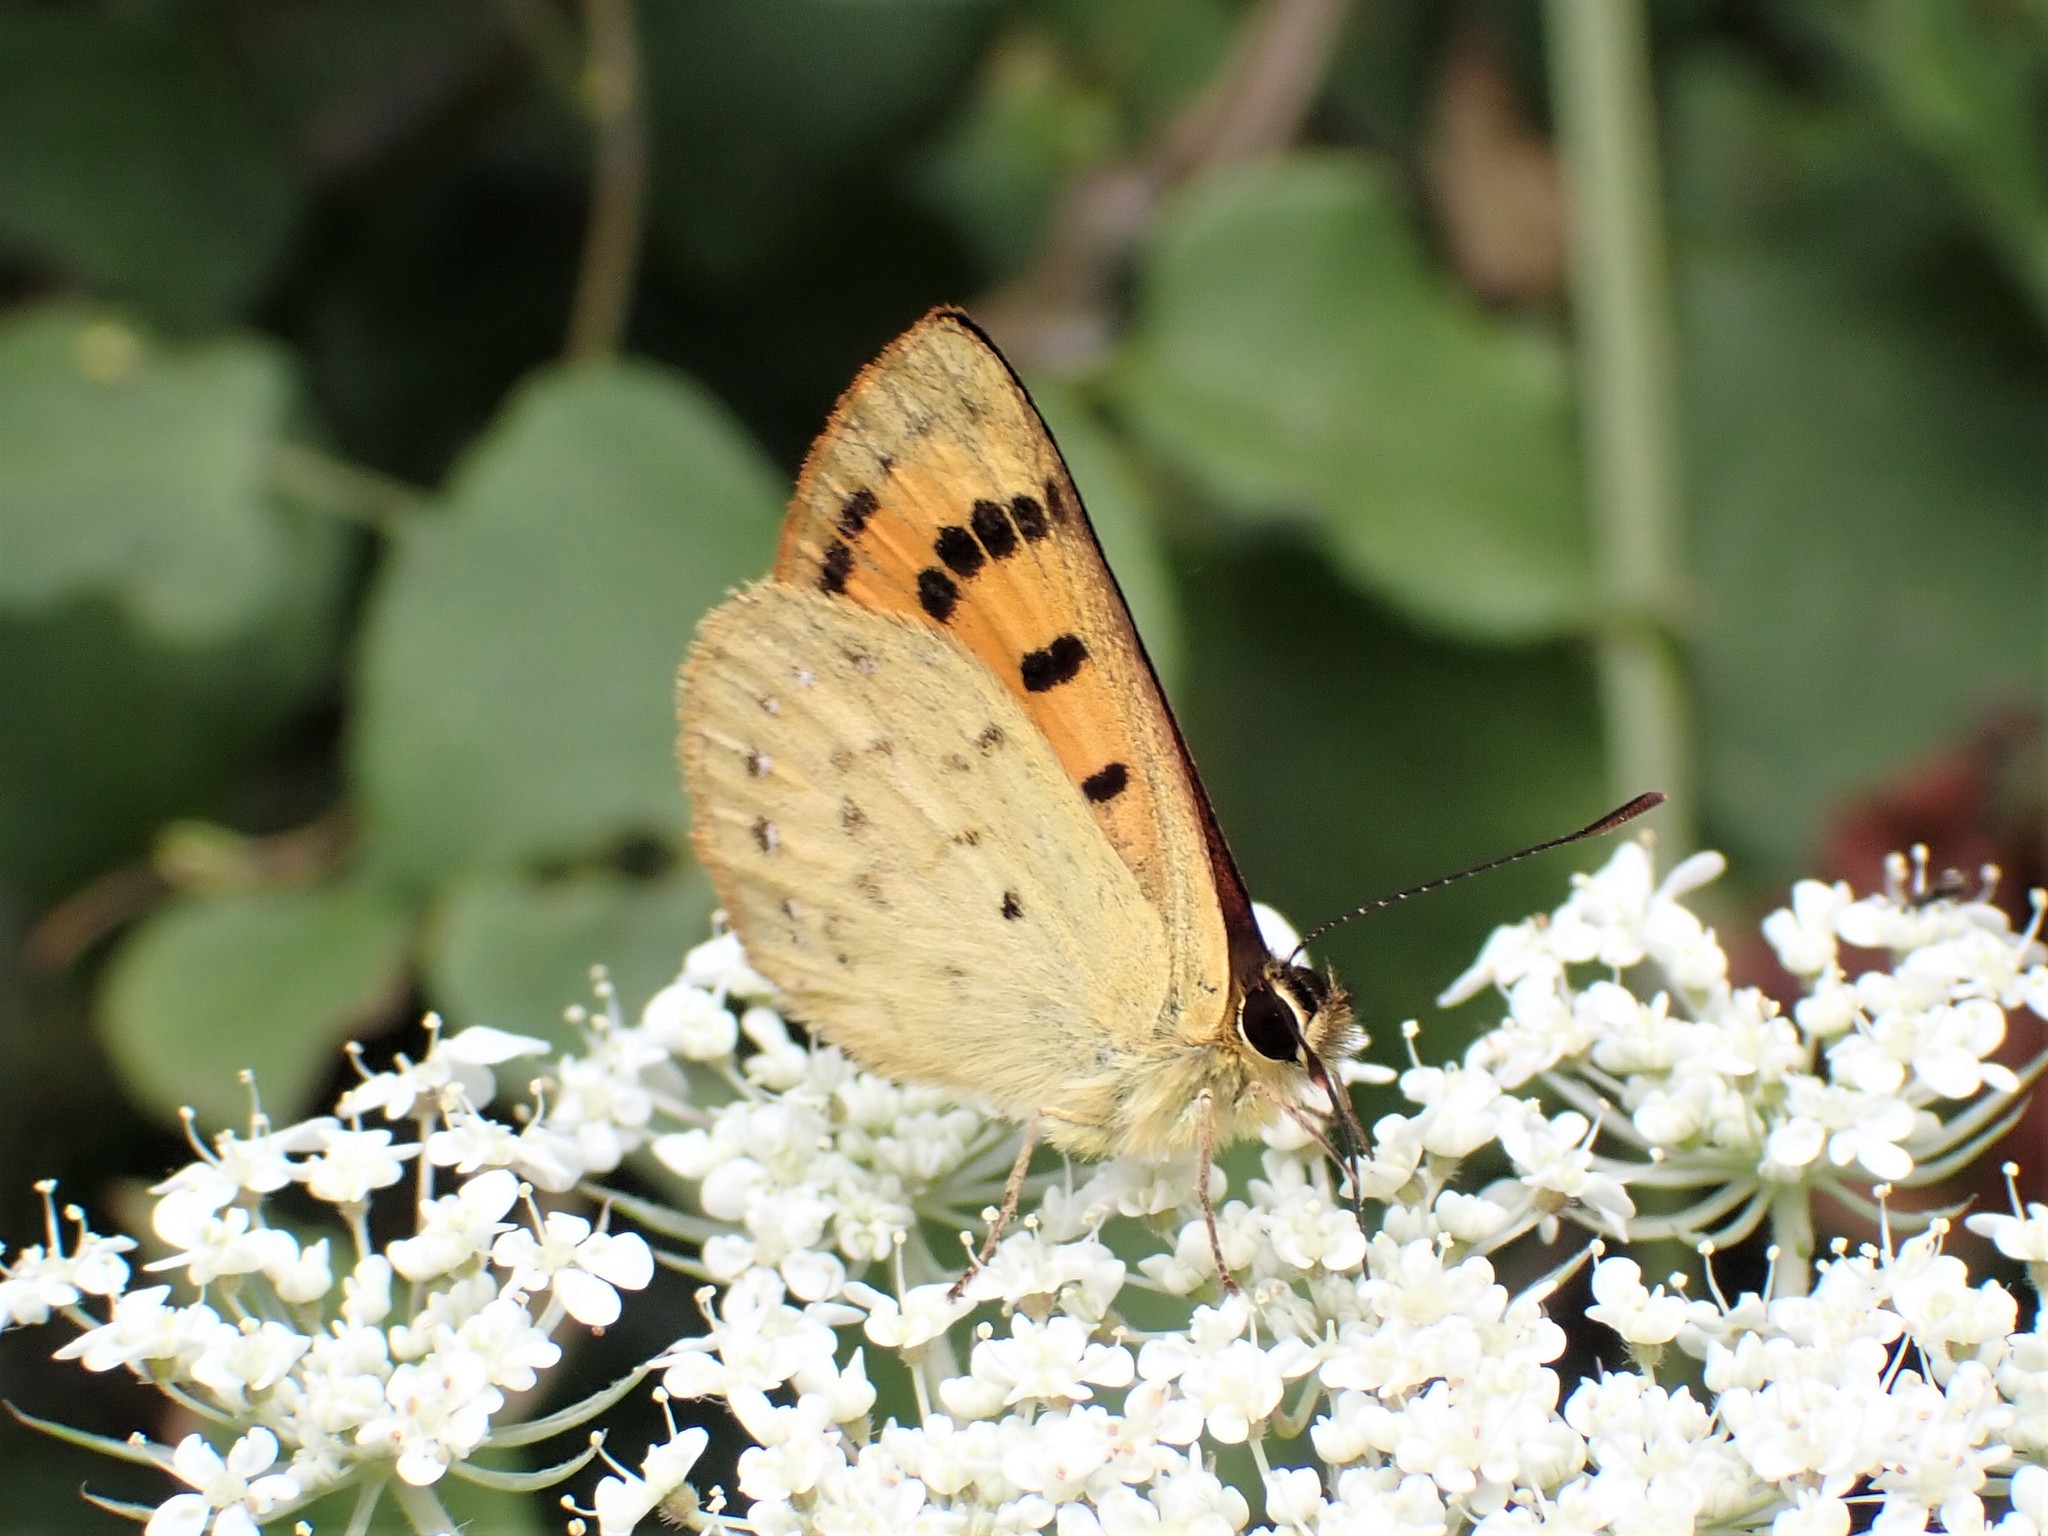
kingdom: Animalia
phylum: Arthropoda
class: Insecta
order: Lepidoptera
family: Lycaenidae
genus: Lycaena
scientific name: Lycaena salustius
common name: North island coastal copper
